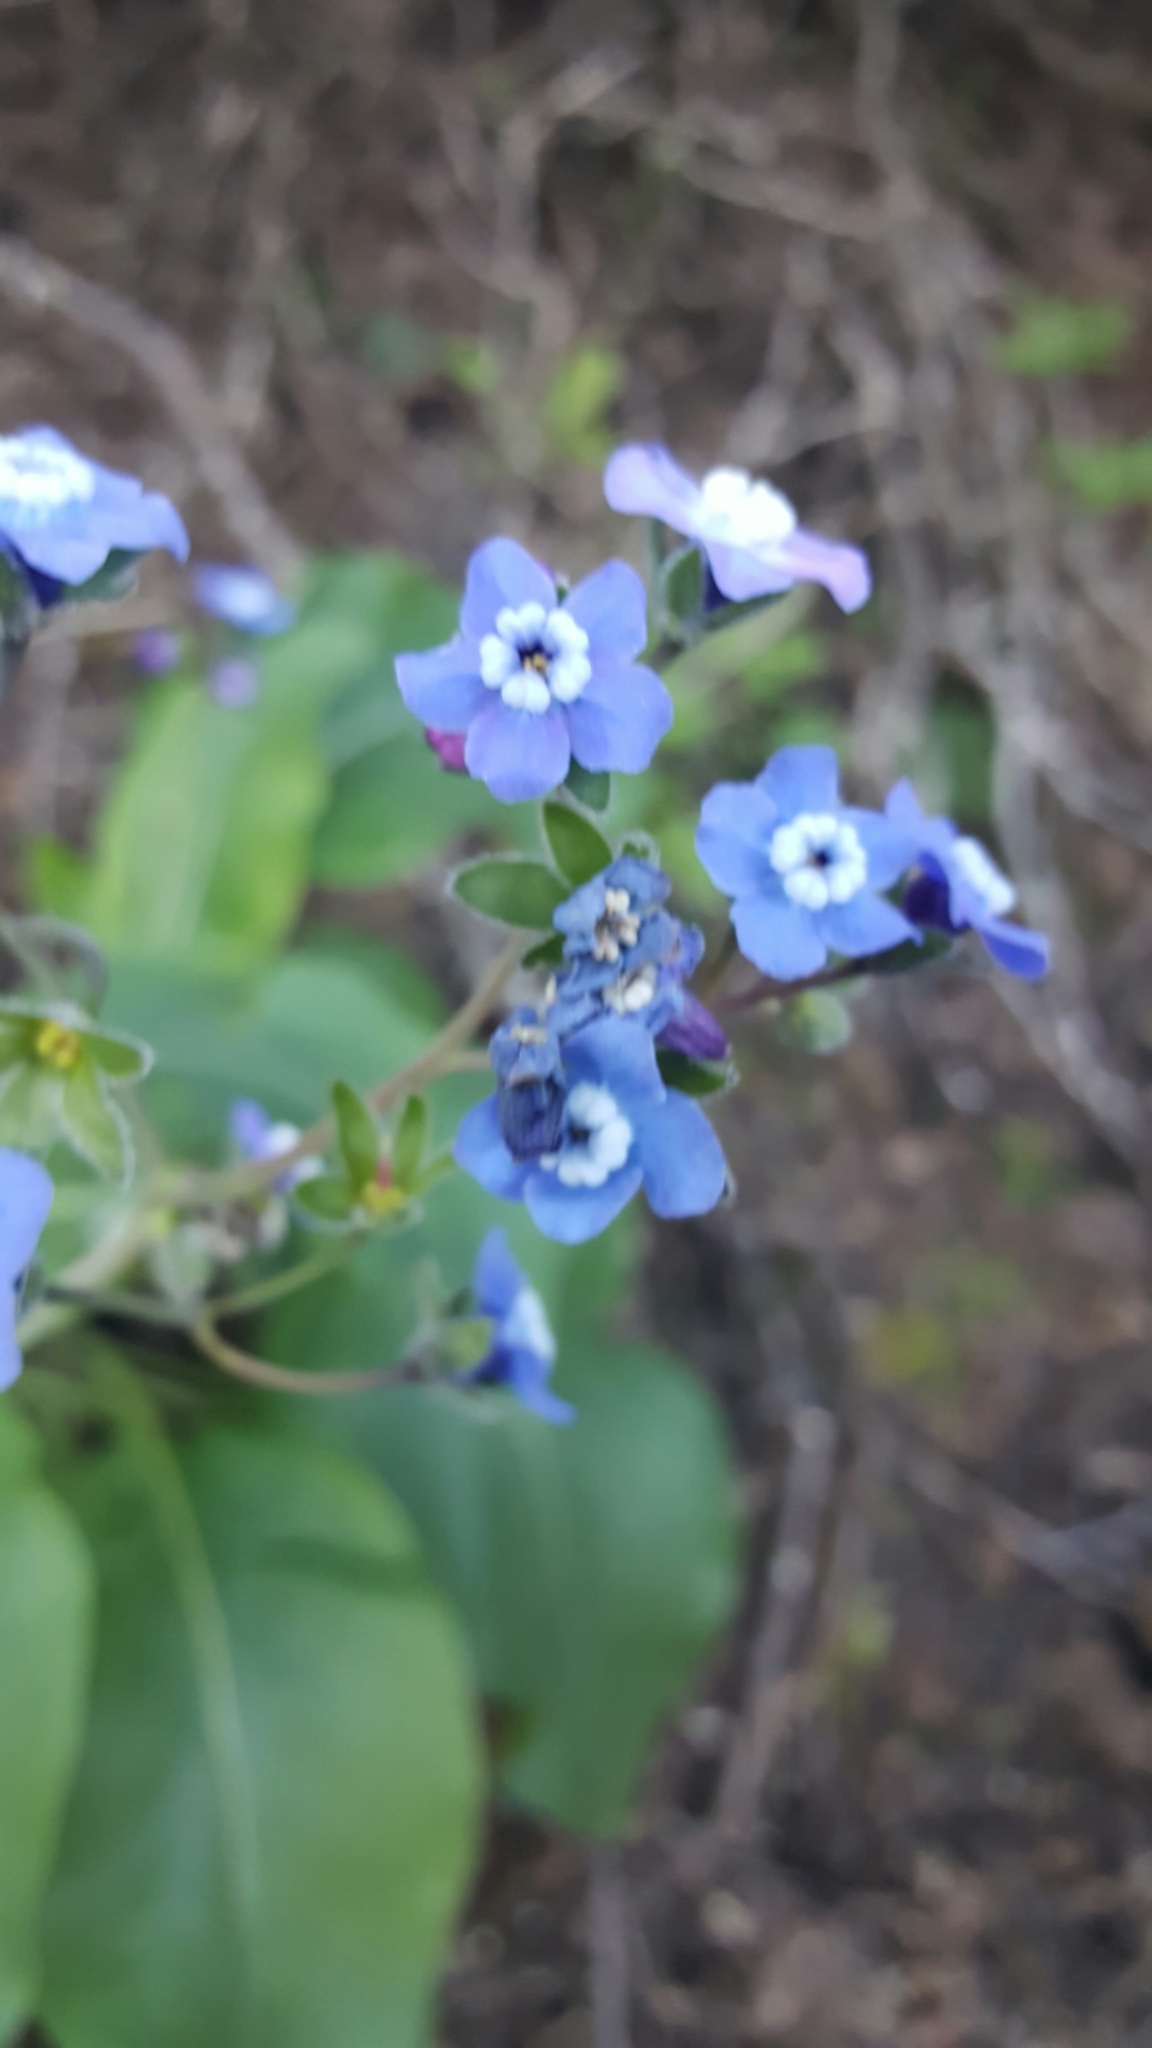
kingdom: Plantae
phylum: Tracheophyta
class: Magnoliopsida
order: Boraginales
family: Boraginaceae
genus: Adelinia
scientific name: Adelinia grande
